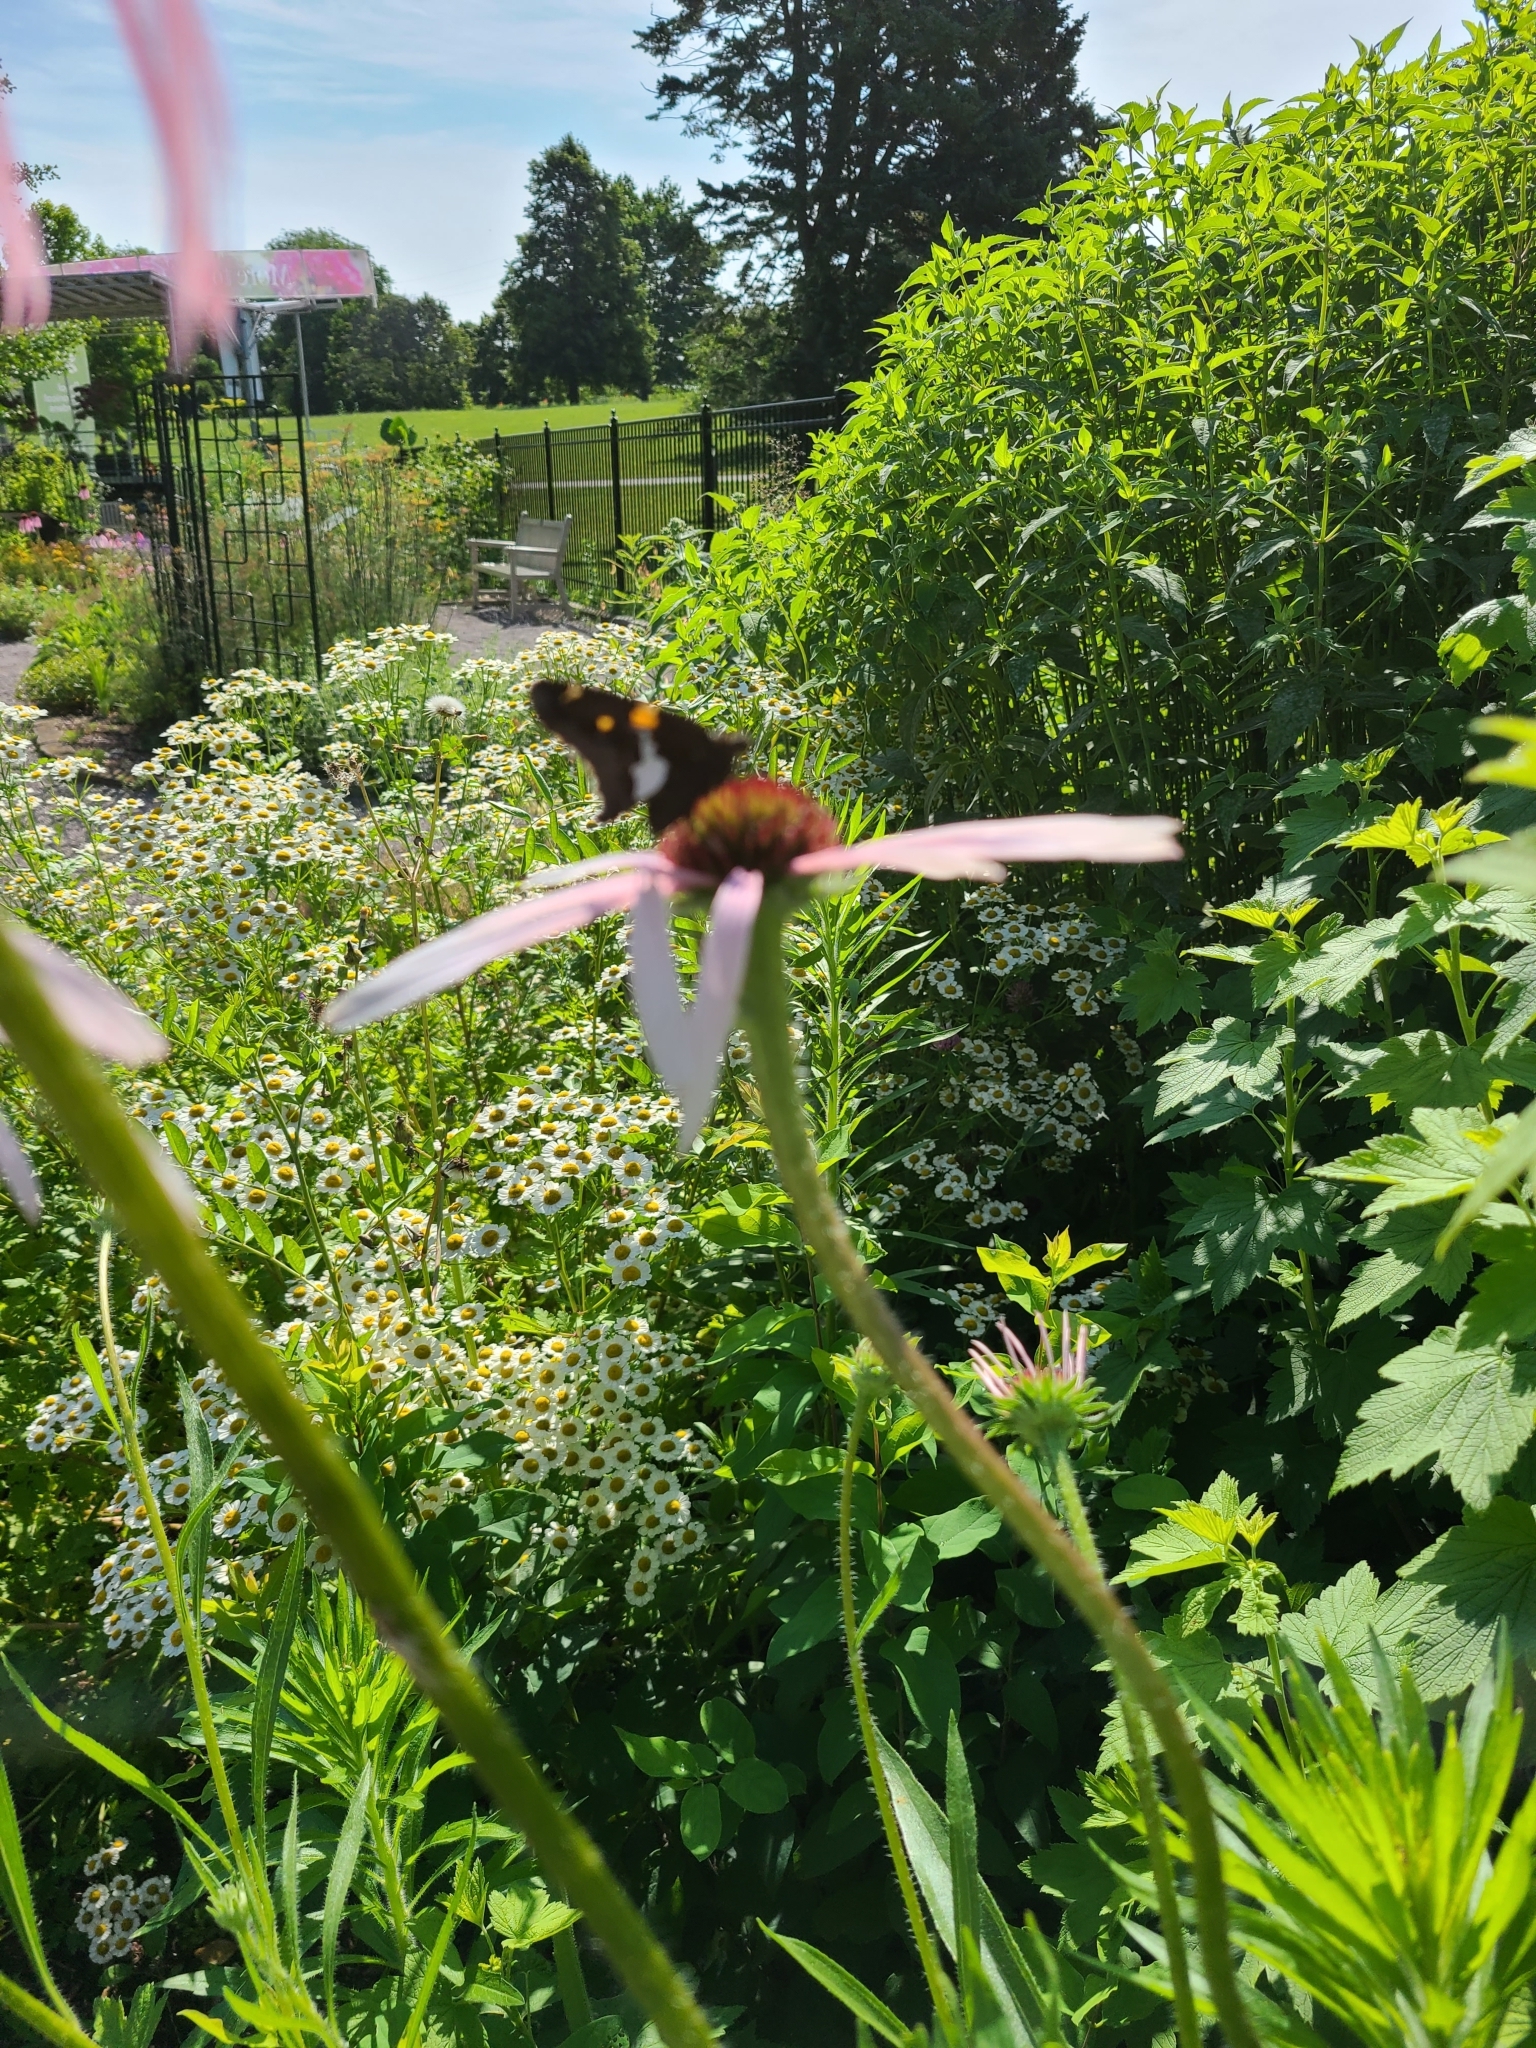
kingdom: Animalia
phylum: Arthropoda
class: Insecta
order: Lepidoptera
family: Hesperiidae
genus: Epargyreus
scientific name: Epargyreus clarus
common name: Silver-spotted skipper
